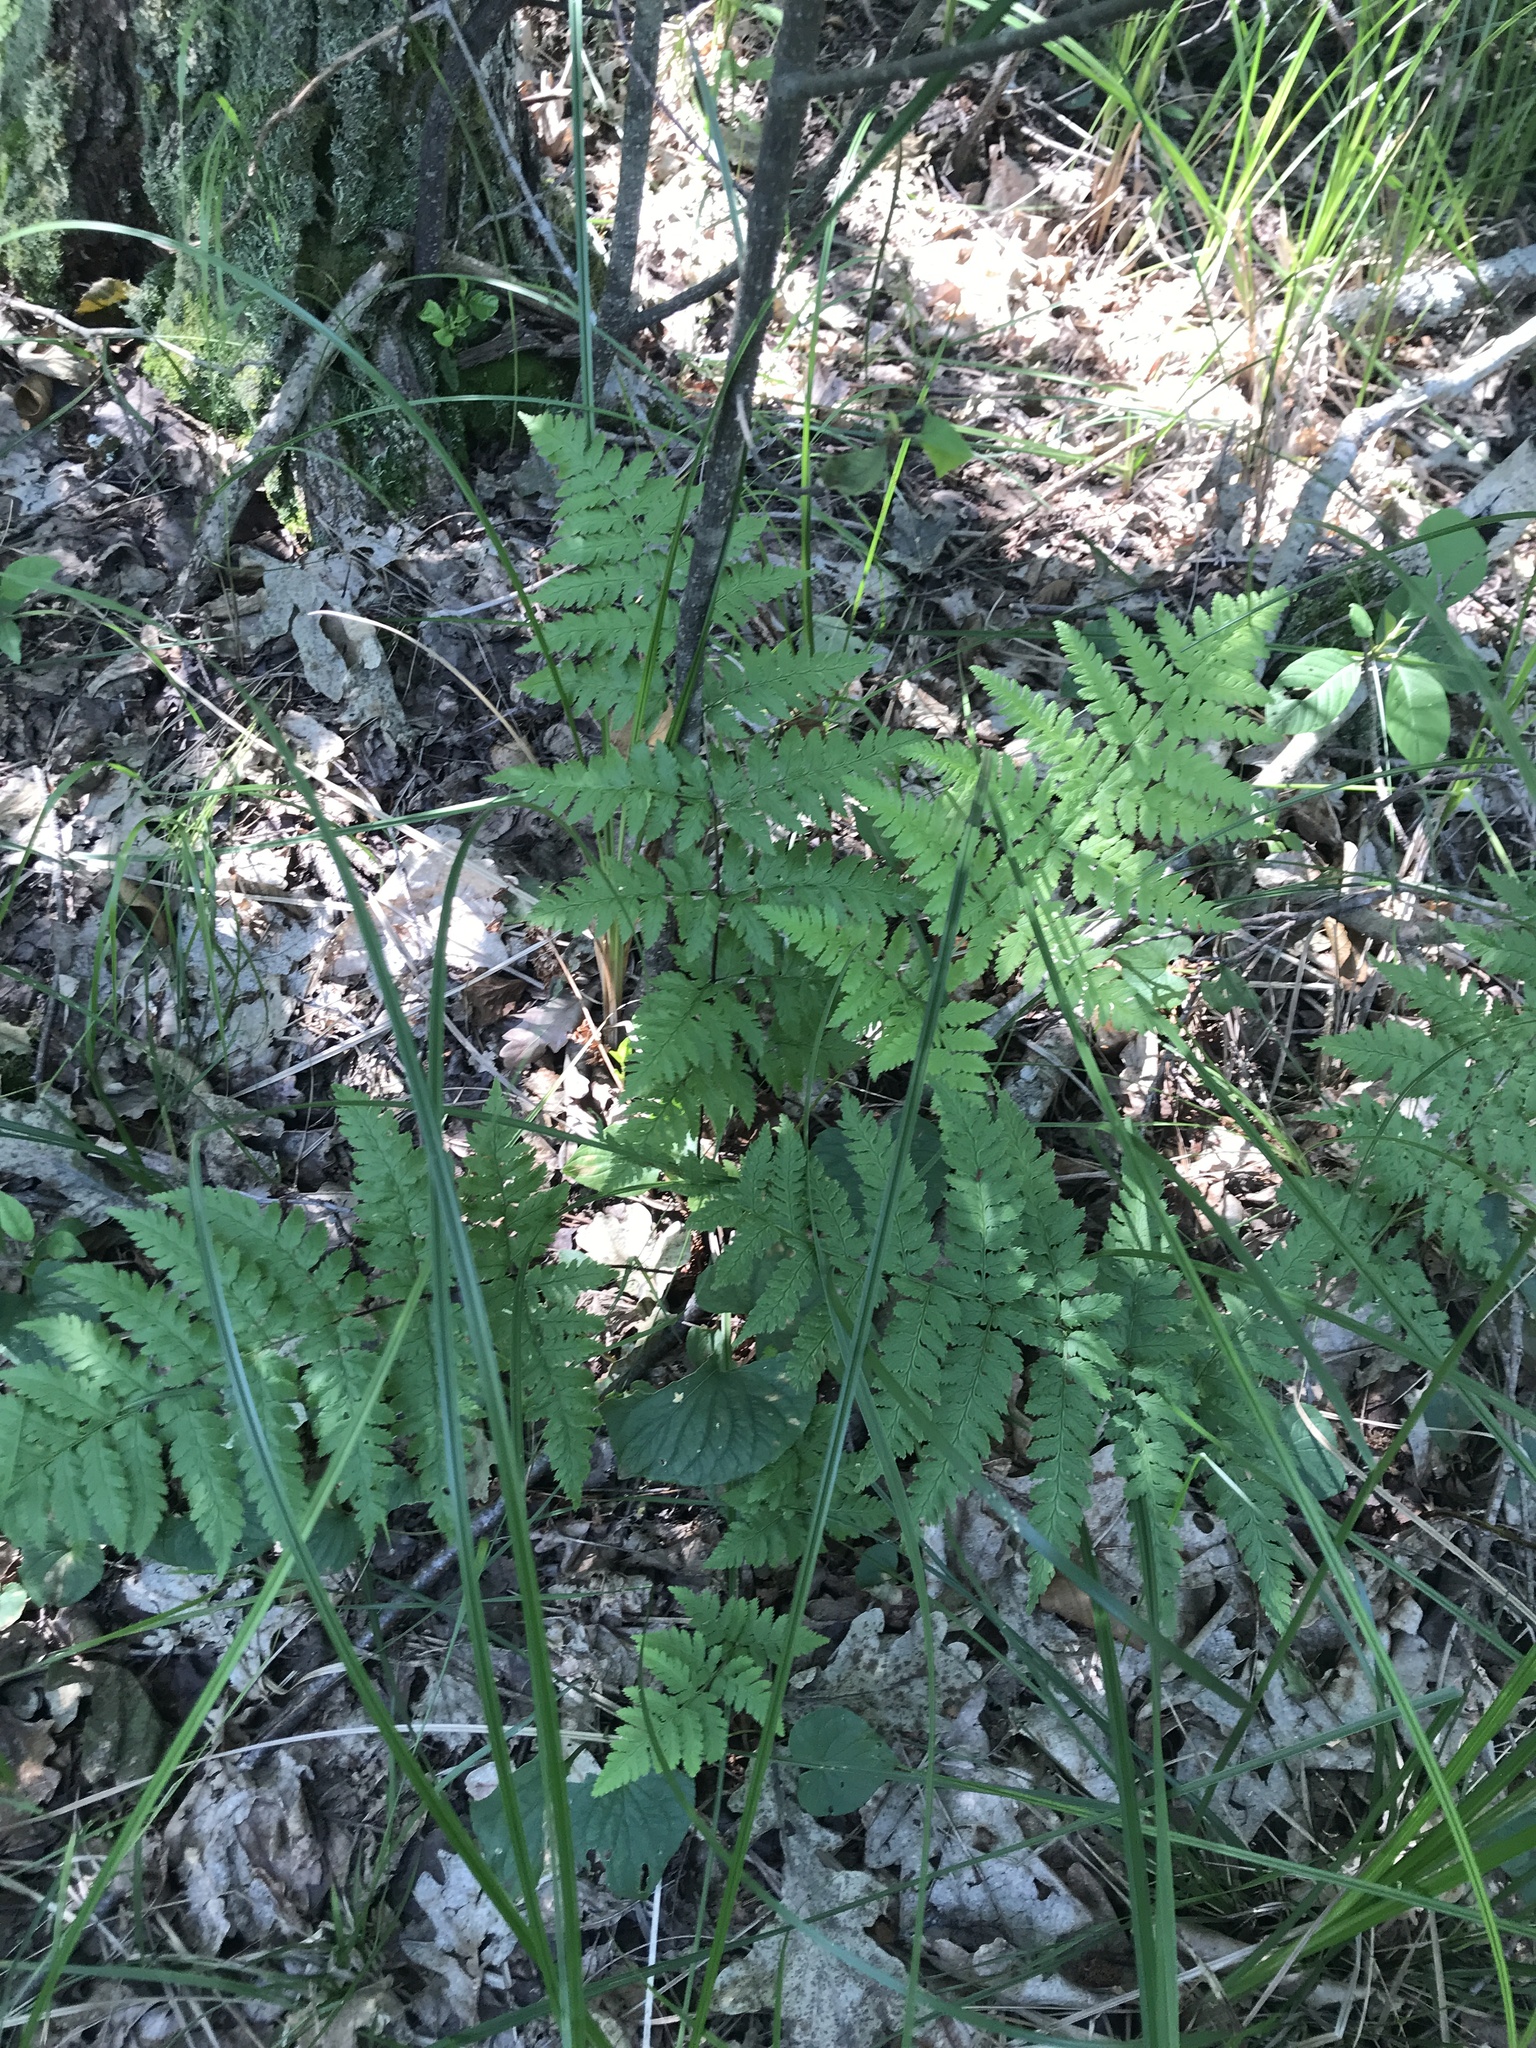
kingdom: Plantae
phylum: Tracheophyta
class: Polypodiopsida
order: Polypodiales
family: Dryopteridaceae
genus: Dryopteris
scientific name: Dryopteris carthusiana
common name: Narrow buckler-fern
